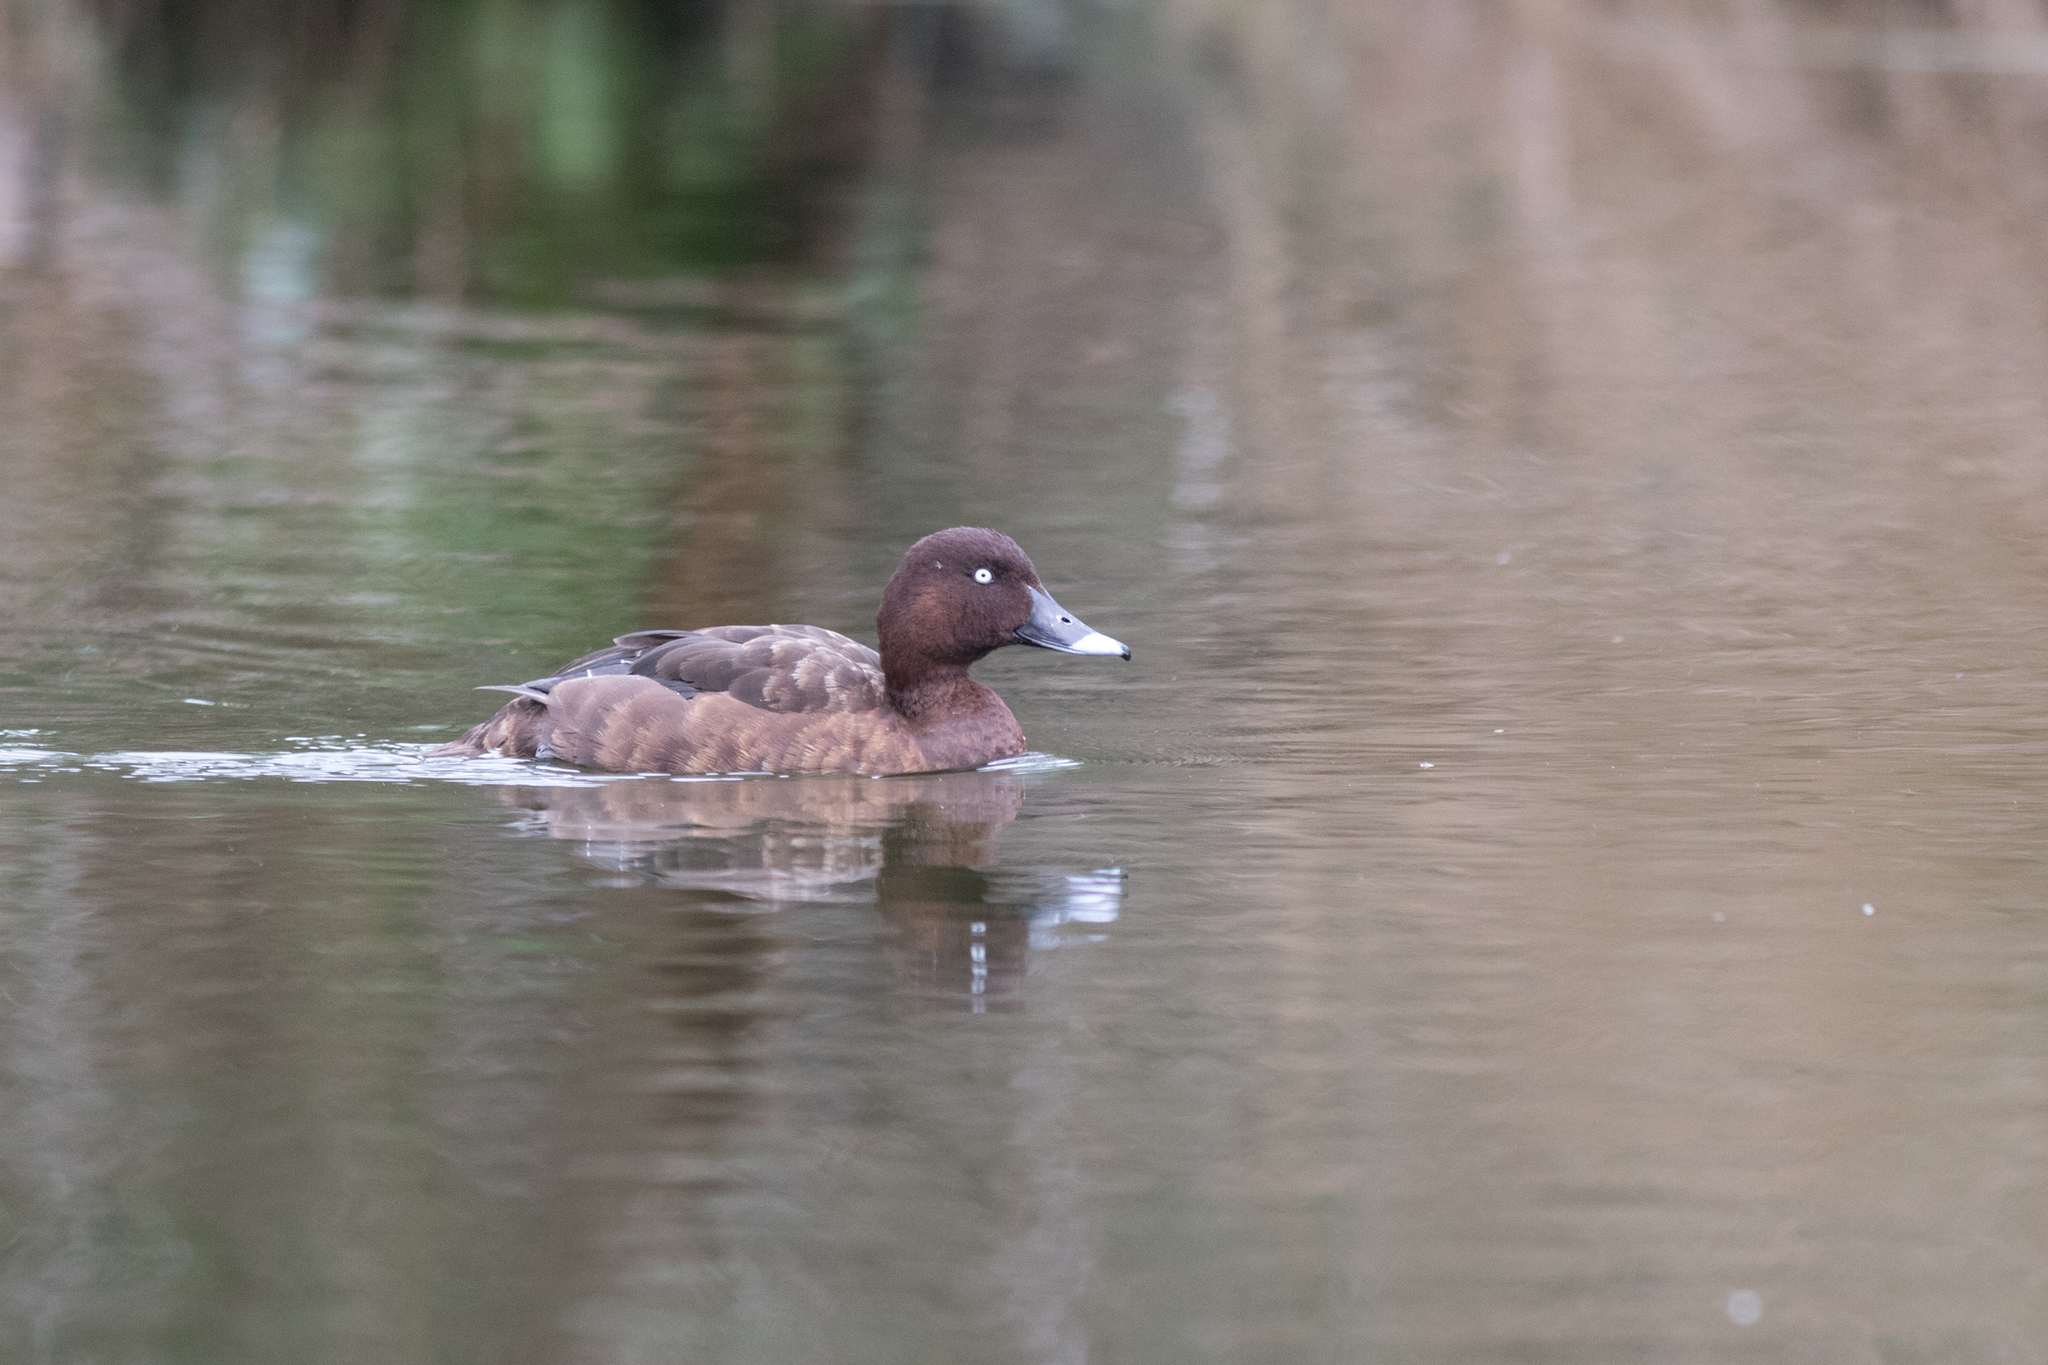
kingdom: Animalia
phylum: Chordata
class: Aves
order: Anseriformes
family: Anatidae
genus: Aythya
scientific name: Aythya australis
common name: Hardhead
